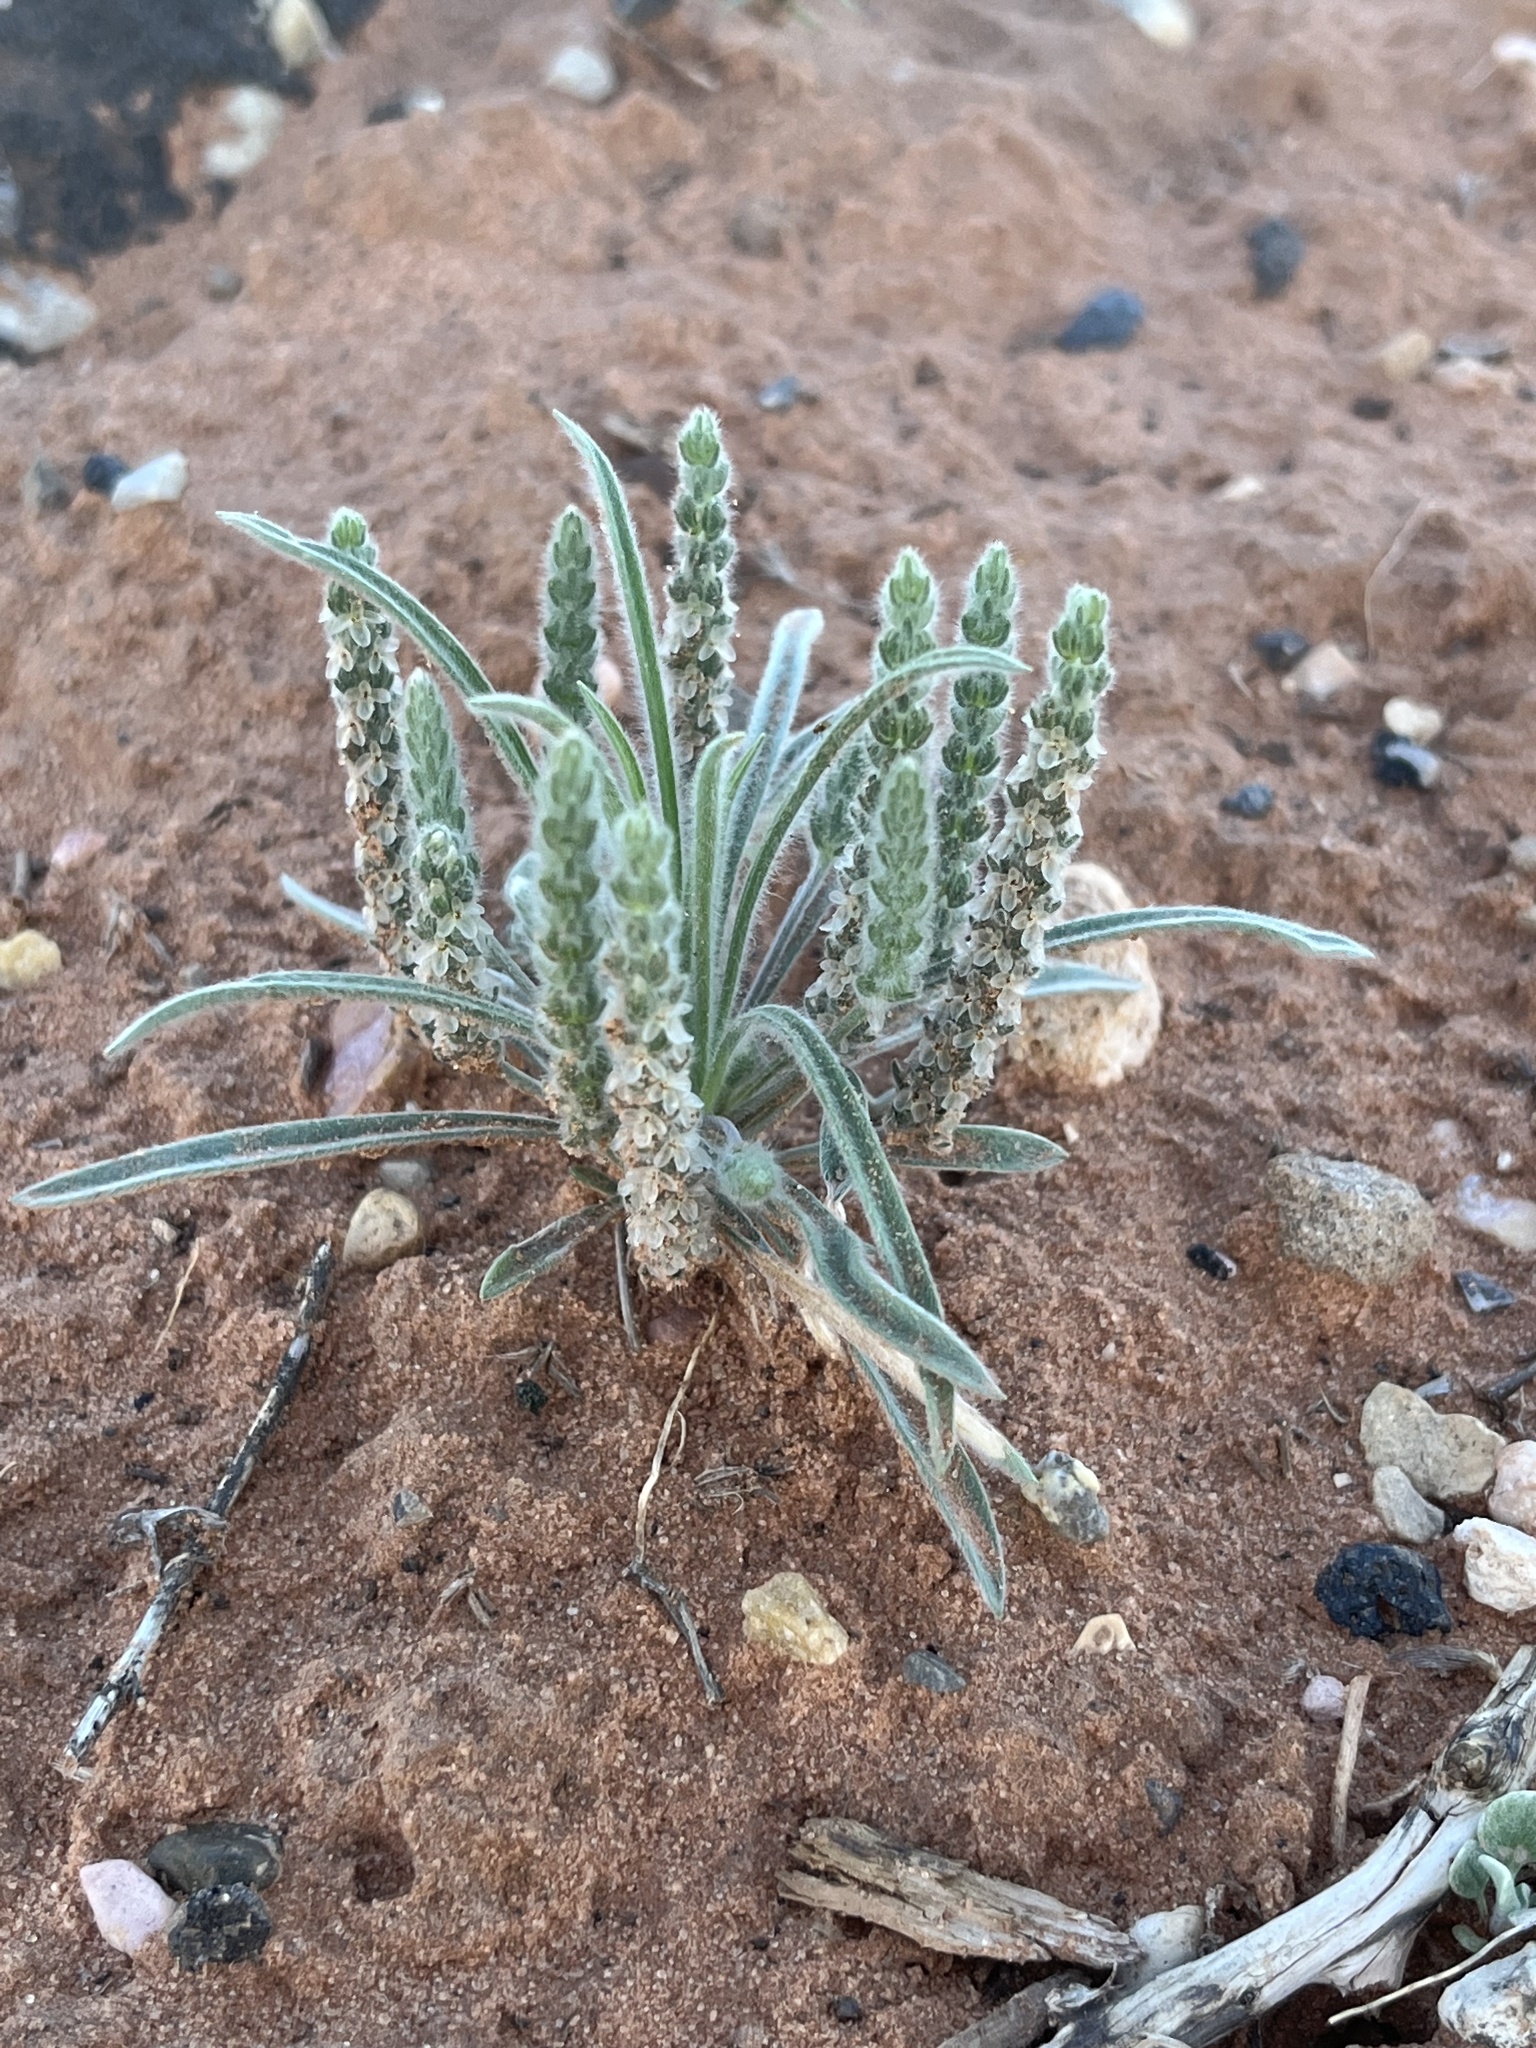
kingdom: Plantae
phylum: Tracheophyta
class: Magnoliopsida
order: Lamiales
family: Plantaginaceae
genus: Plantago
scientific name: Plantago patagonica
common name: Patagonia indian-wheat
